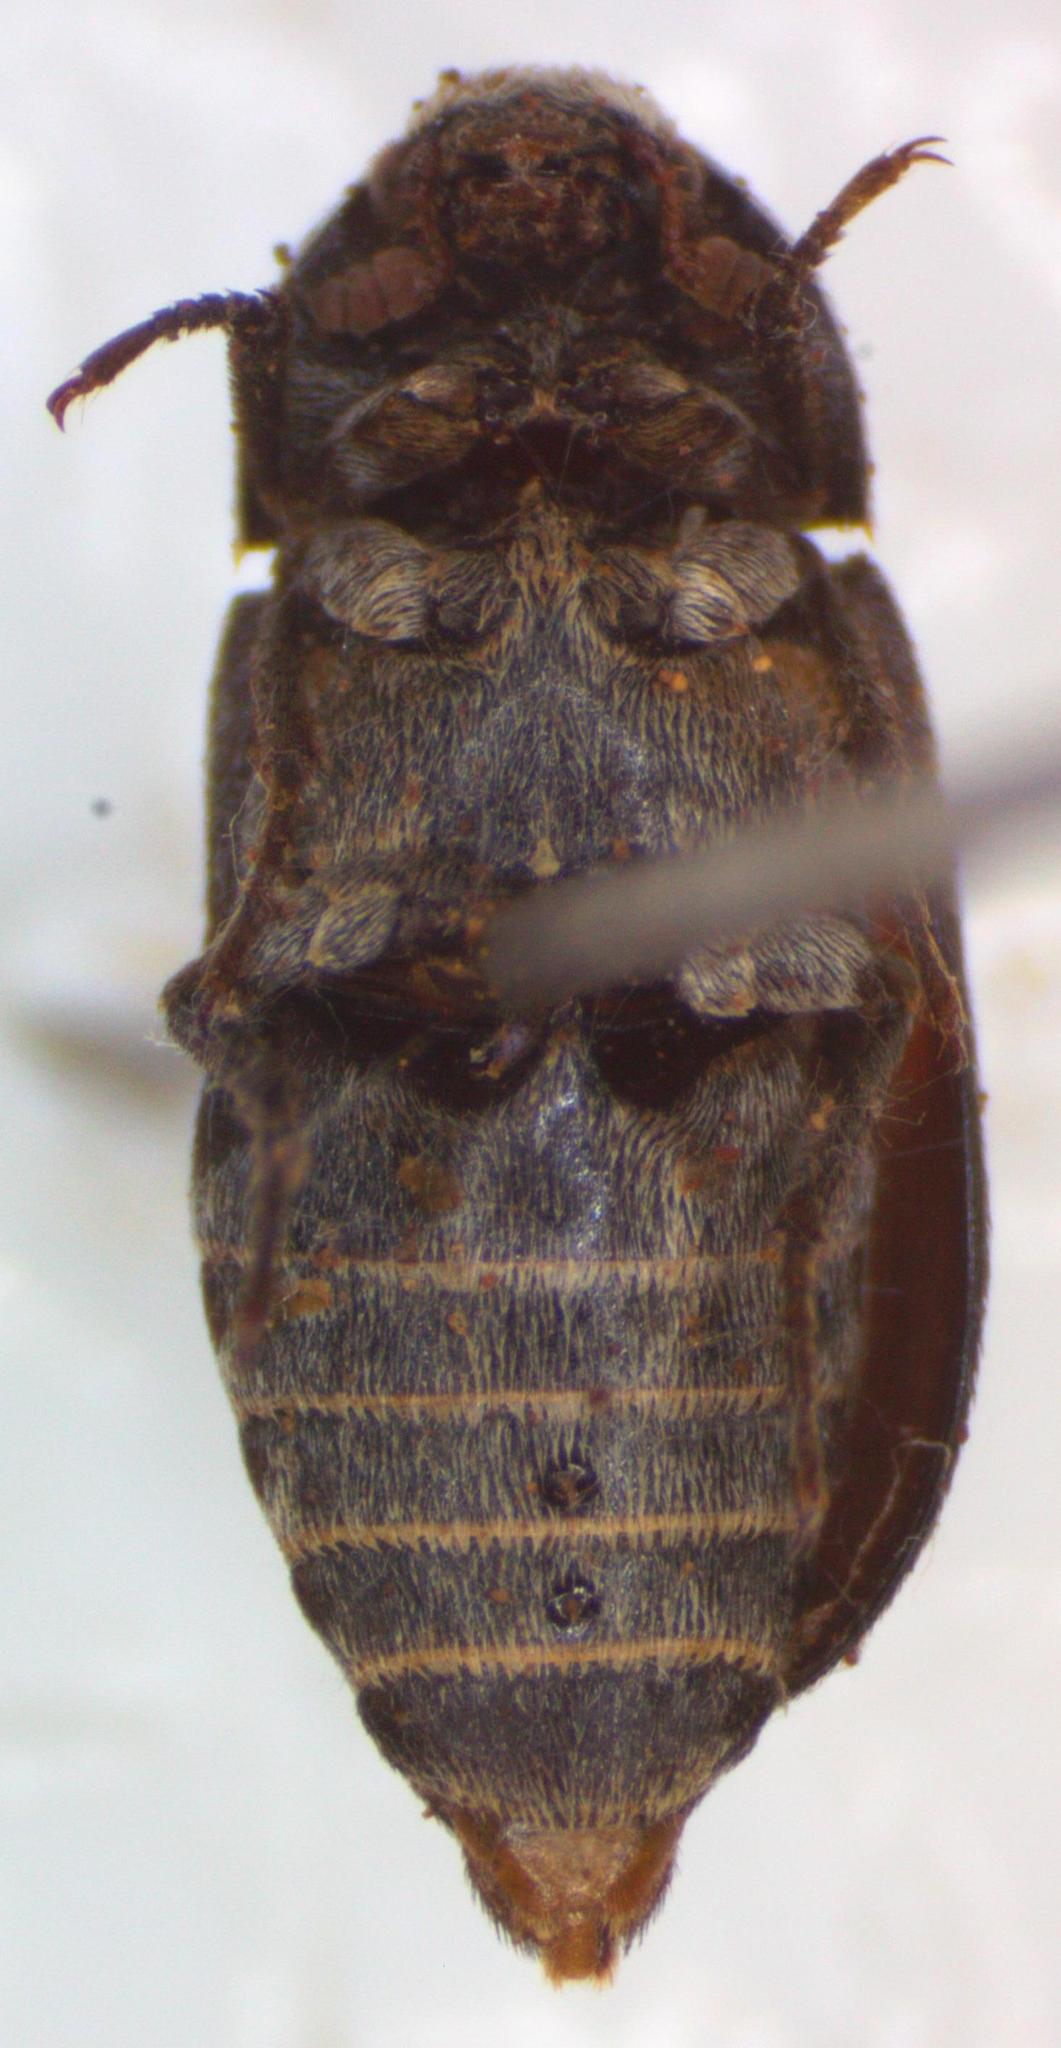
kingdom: Animalia
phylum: Arthropoda
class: Insecta
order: Coleoptera
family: Dermestidae
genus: Dermestes
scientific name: Dermestes carnivorus
